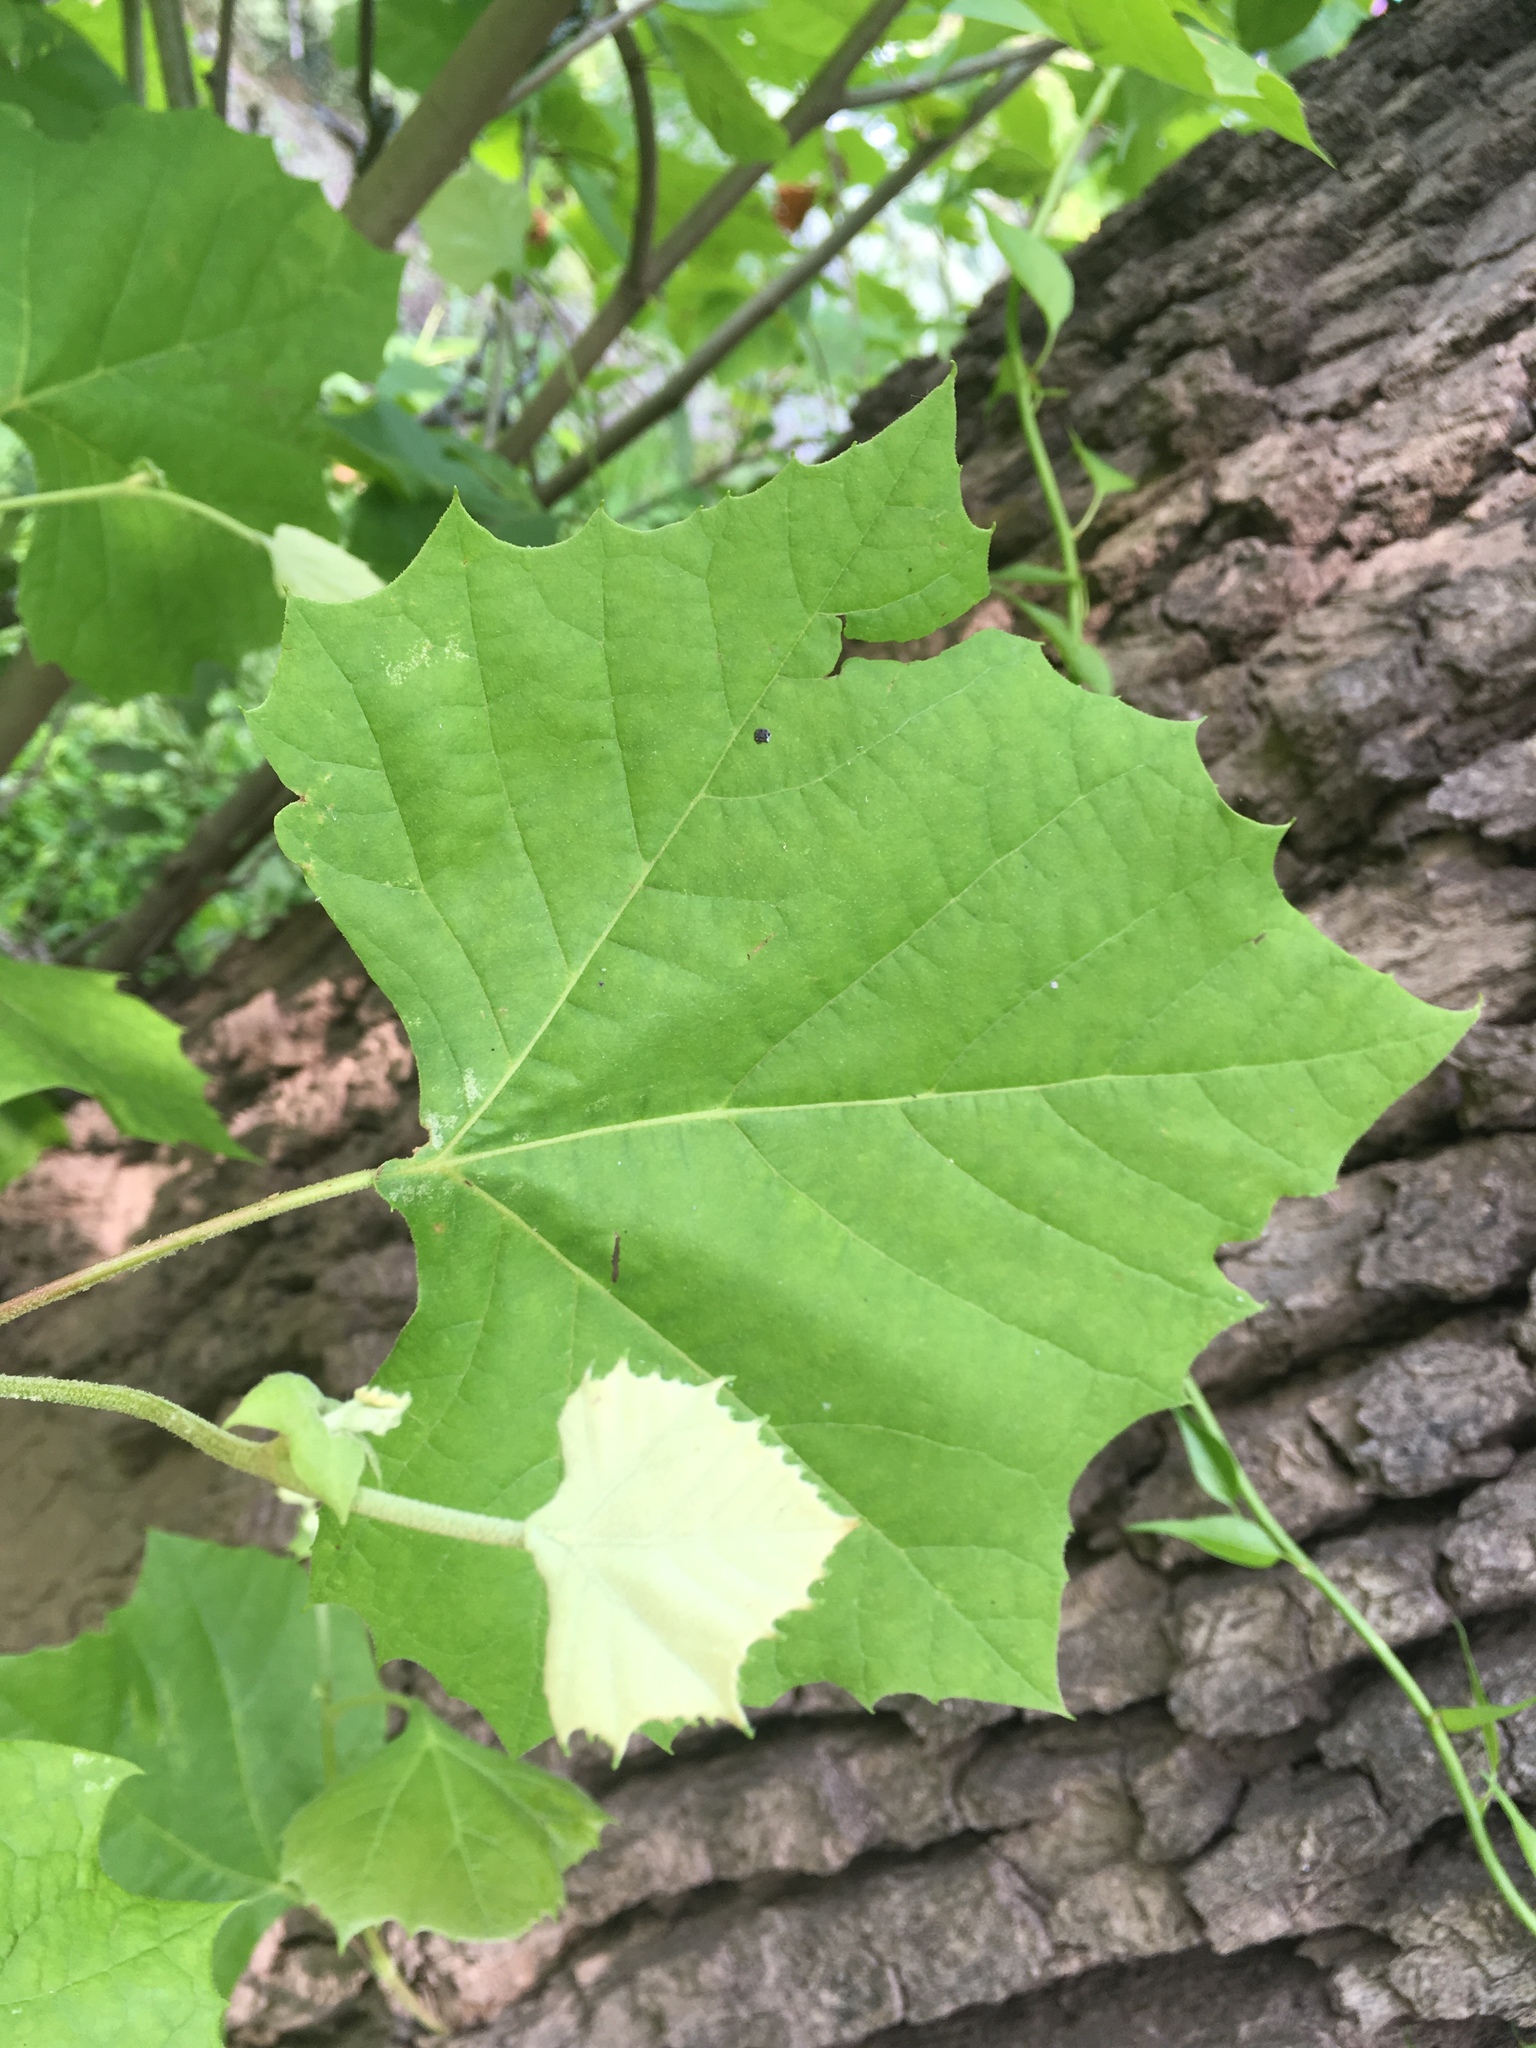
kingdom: Plantae
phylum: Tracheophyta
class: Magnoliopsida
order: Proteales
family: Platanaceae
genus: Platanus
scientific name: Platanus occidentalis
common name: American sycamore
